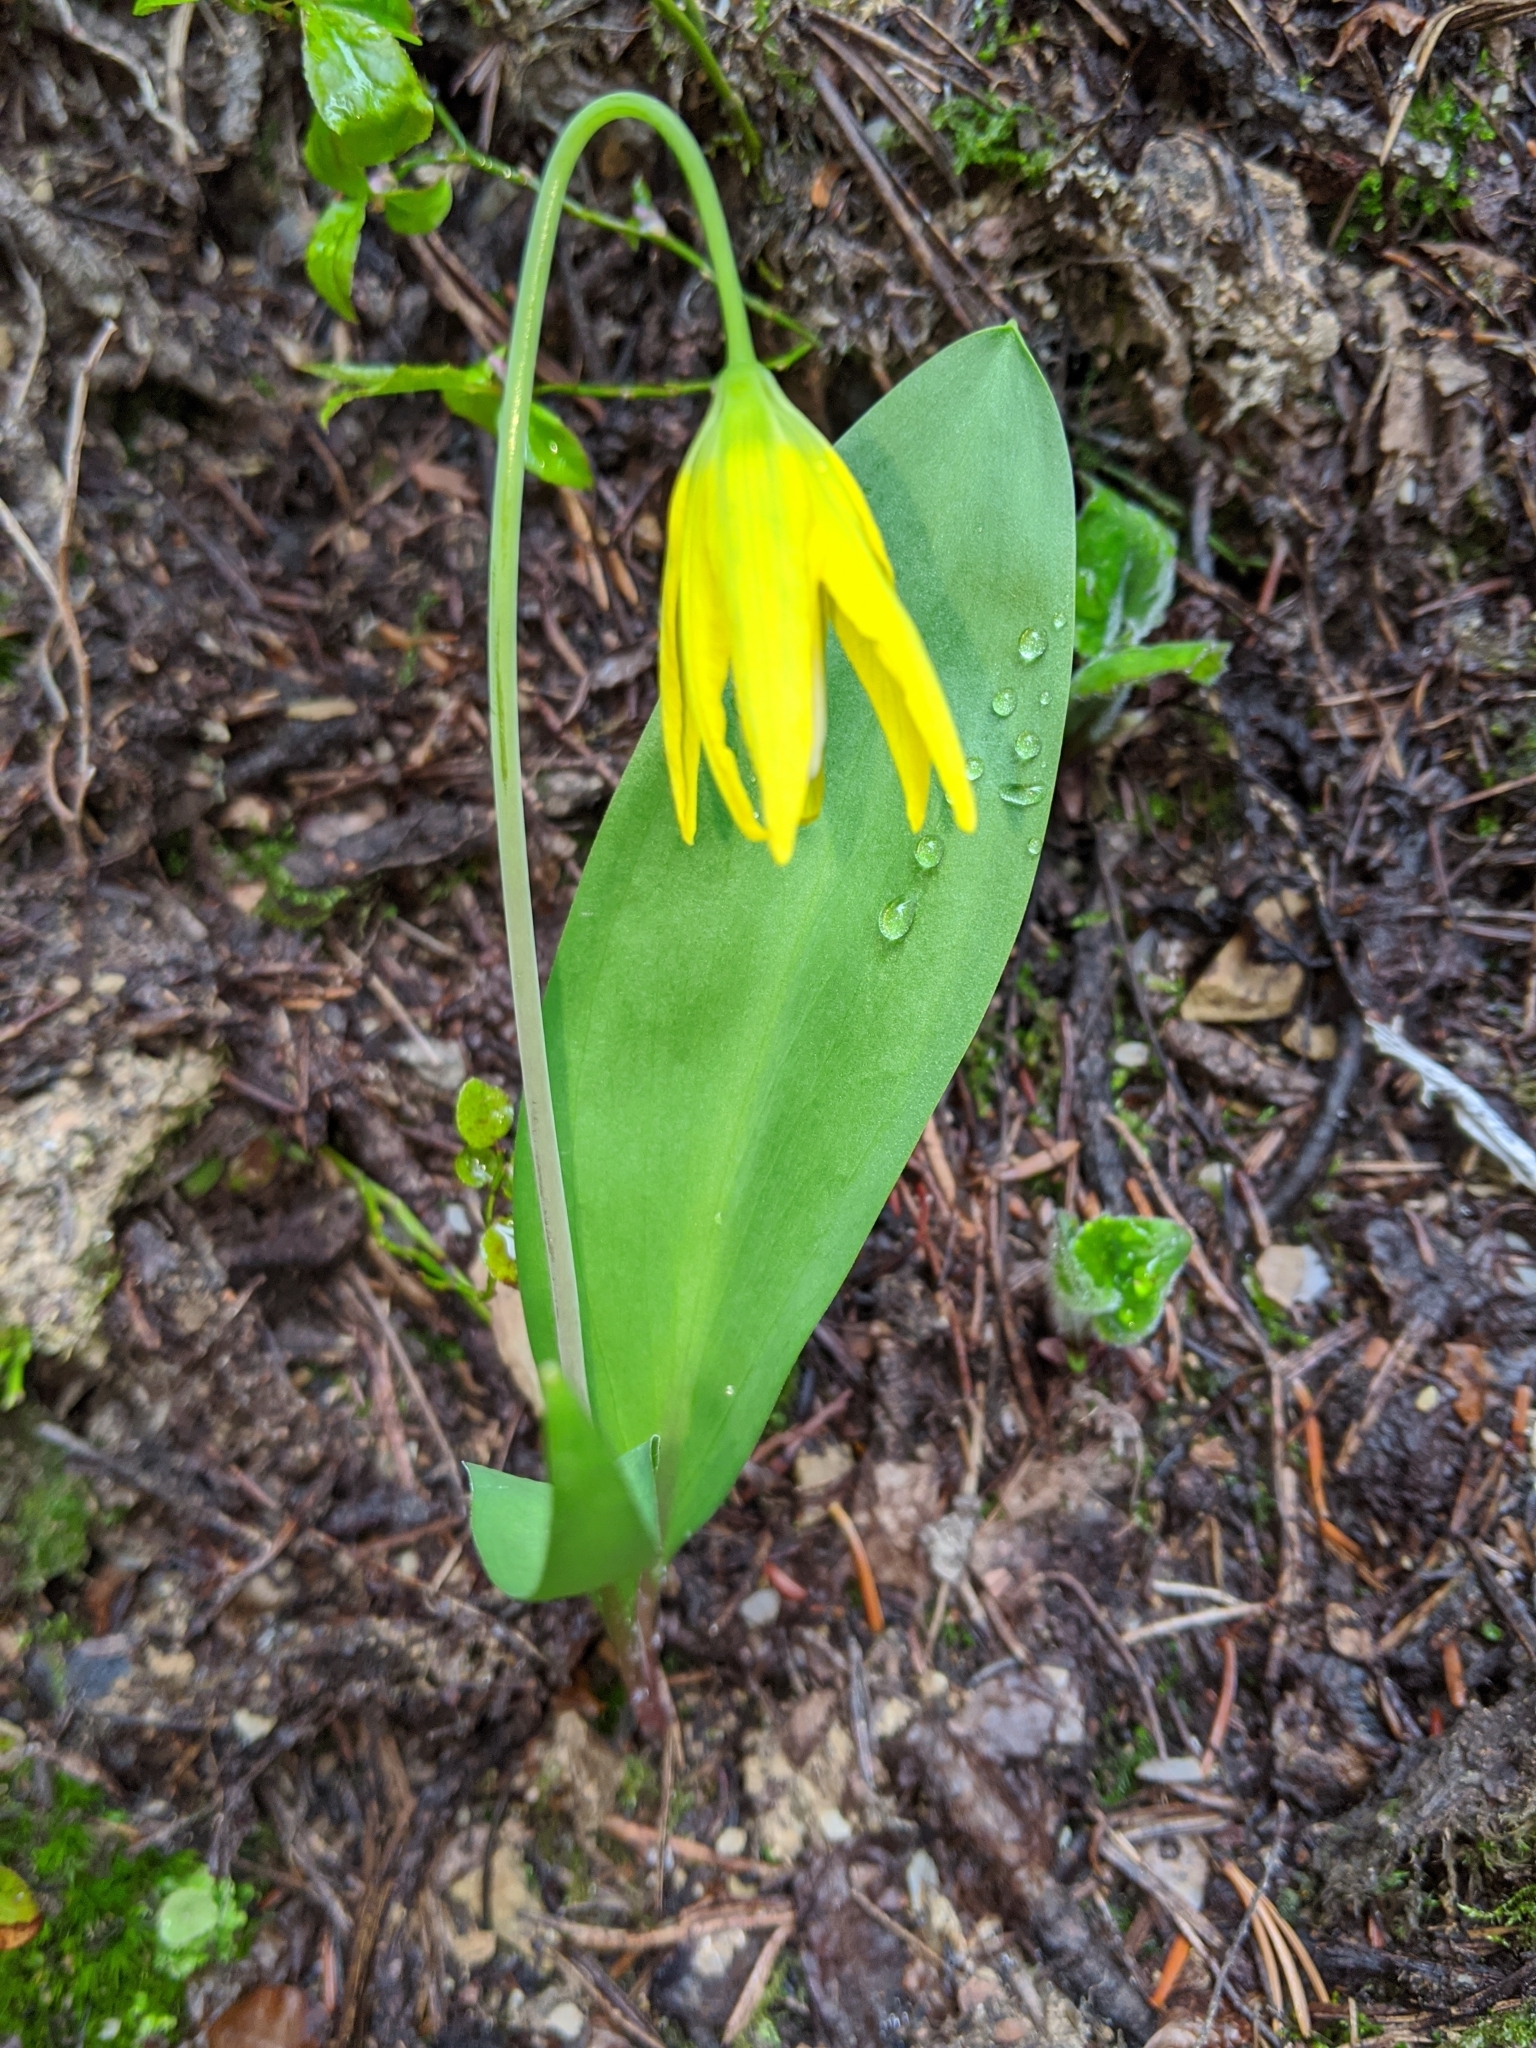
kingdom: Plantae
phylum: Tracheophyta
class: Liliopsida
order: Liliales
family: Liliaceae
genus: Erythronium
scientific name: Erythronium grandiflorum
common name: Avalanche-lily
